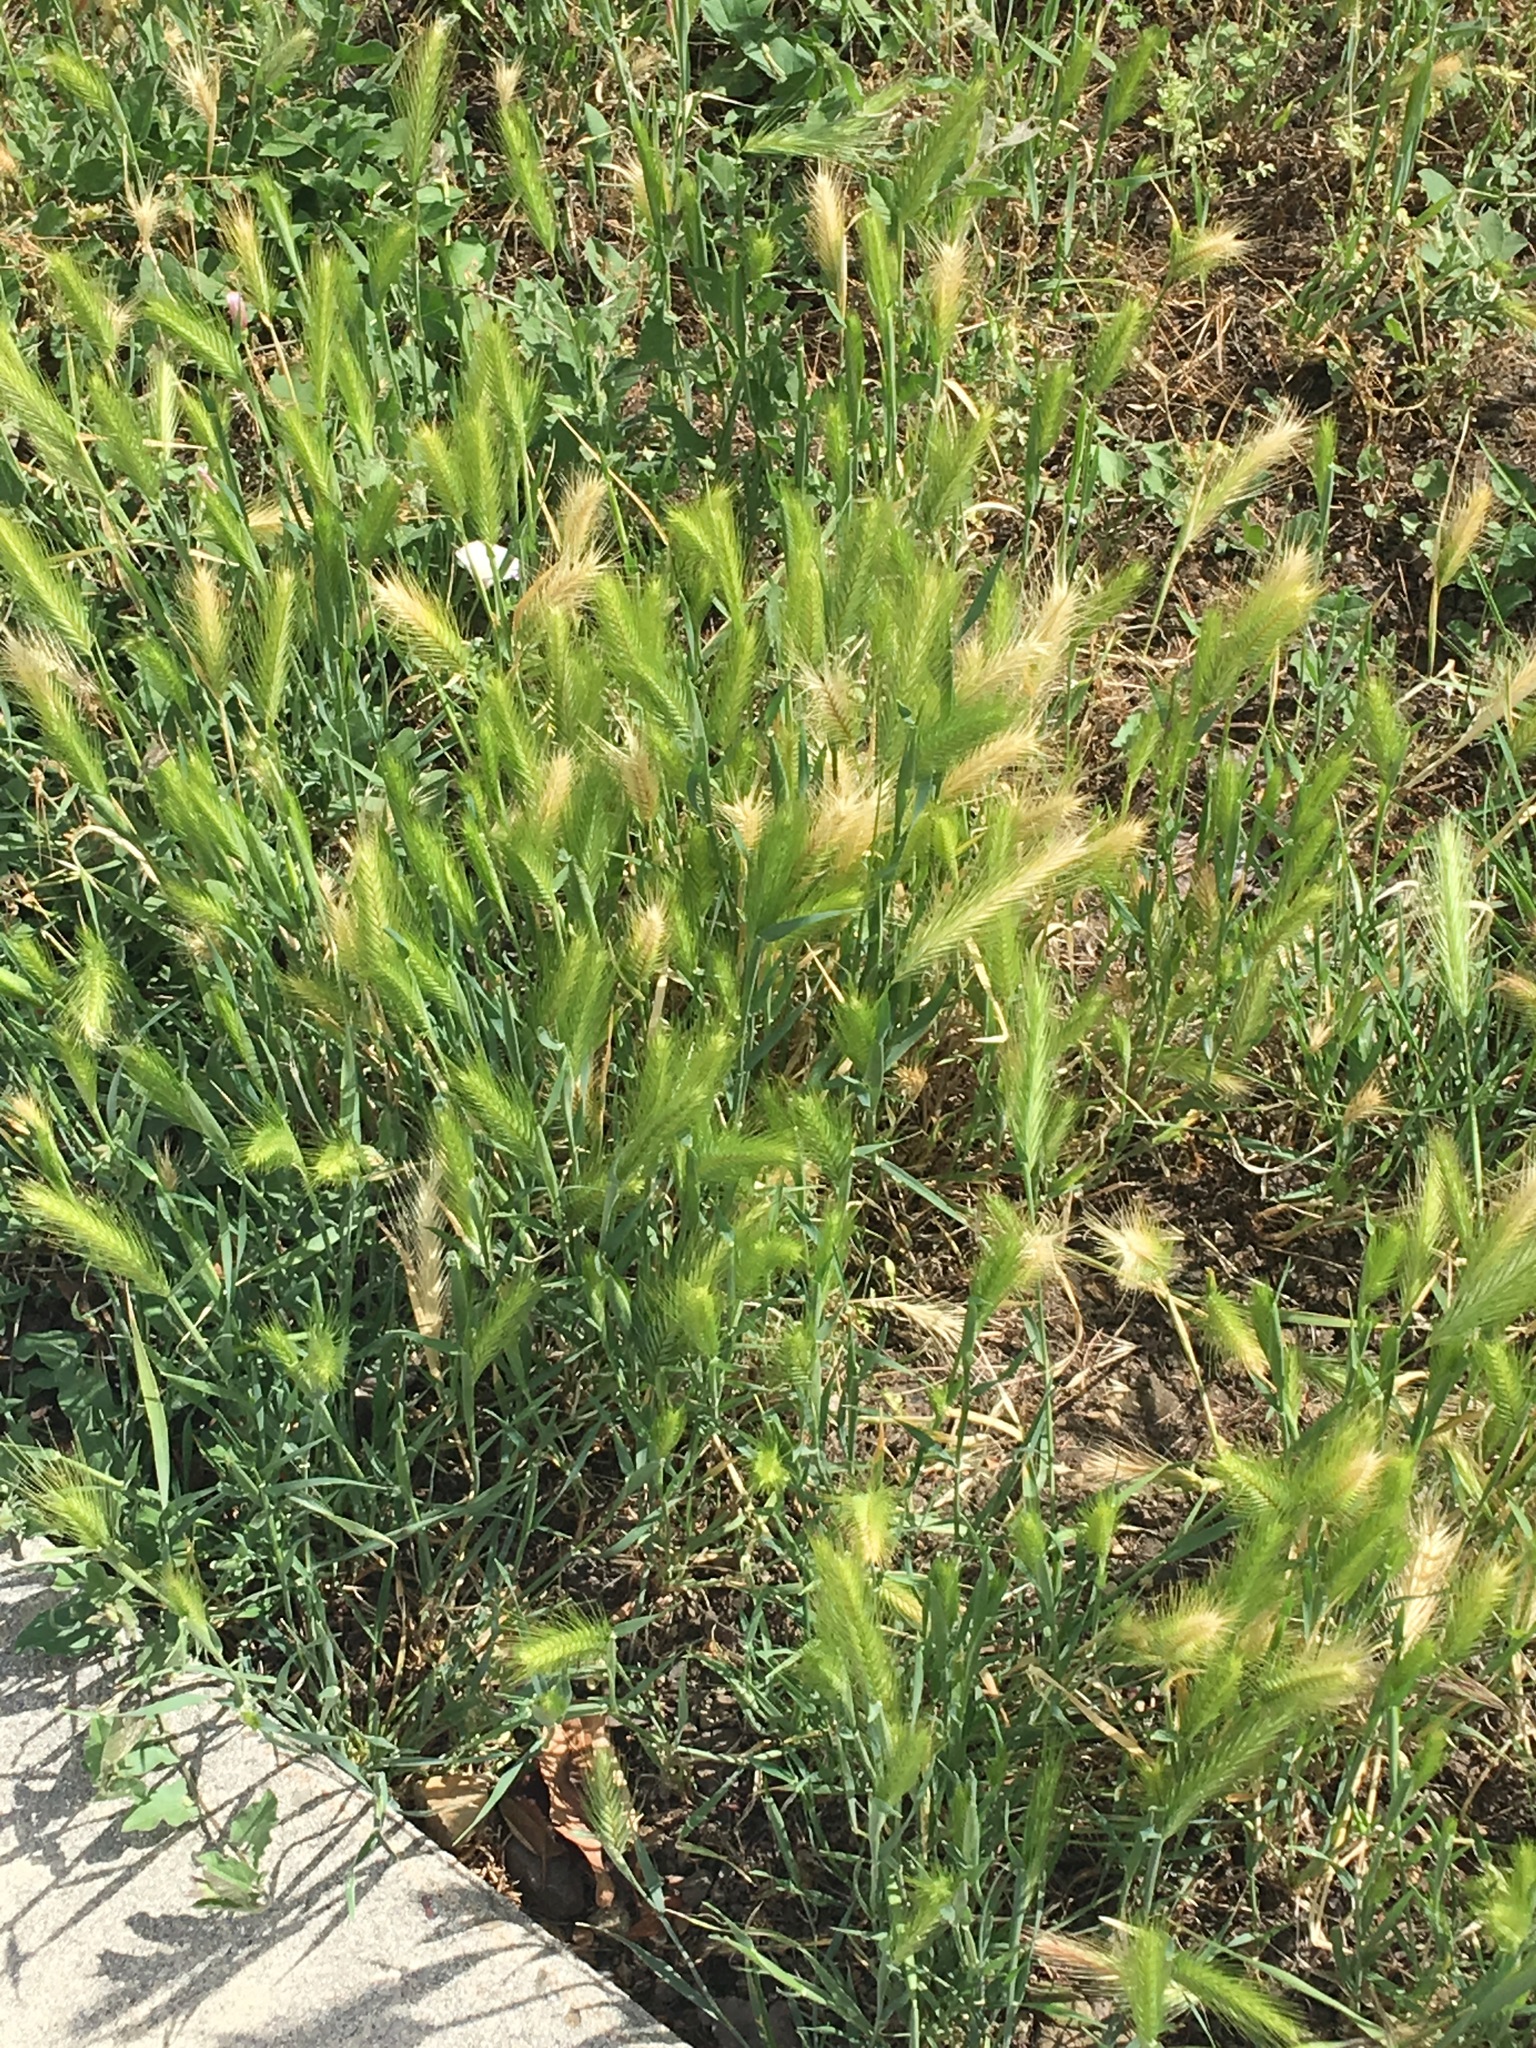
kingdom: Plantae
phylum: Tracheophyta
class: Liliopsida
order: Poales
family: Poaceae
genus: Hordeum
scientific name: Hordeum murinum
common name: Wall barley
